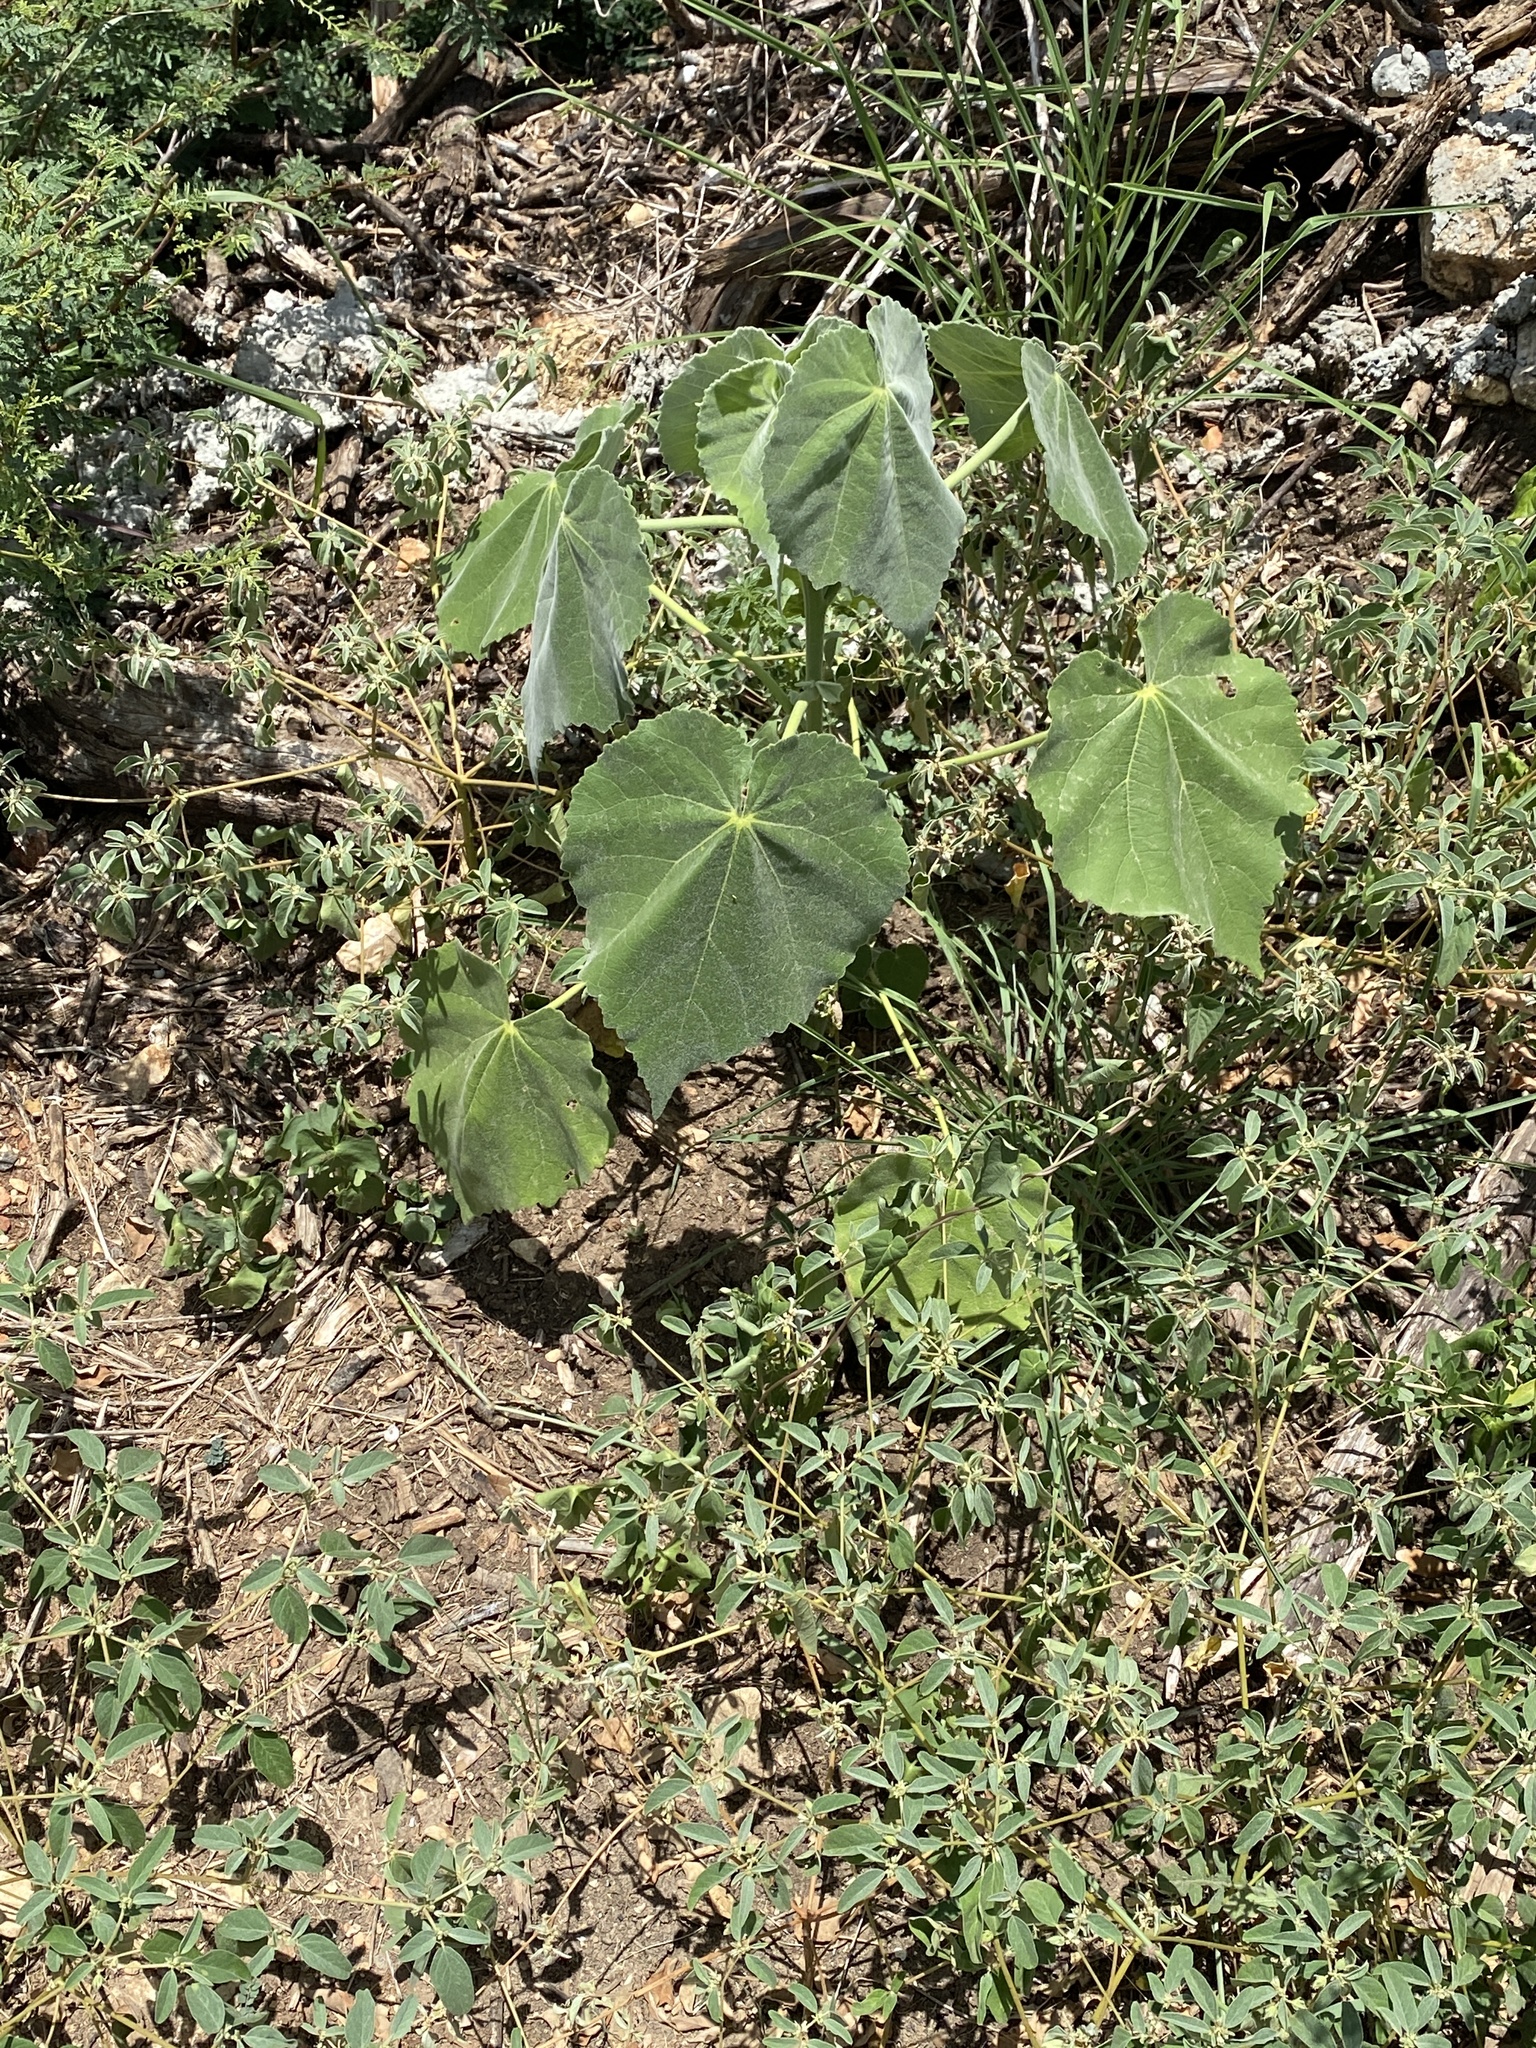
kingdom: Plantae
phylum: Tracheophyta
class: Magnoliopsida
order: Malvales
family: Malvaceae
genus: Allowissadula
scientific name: Allowissadula holosericea
